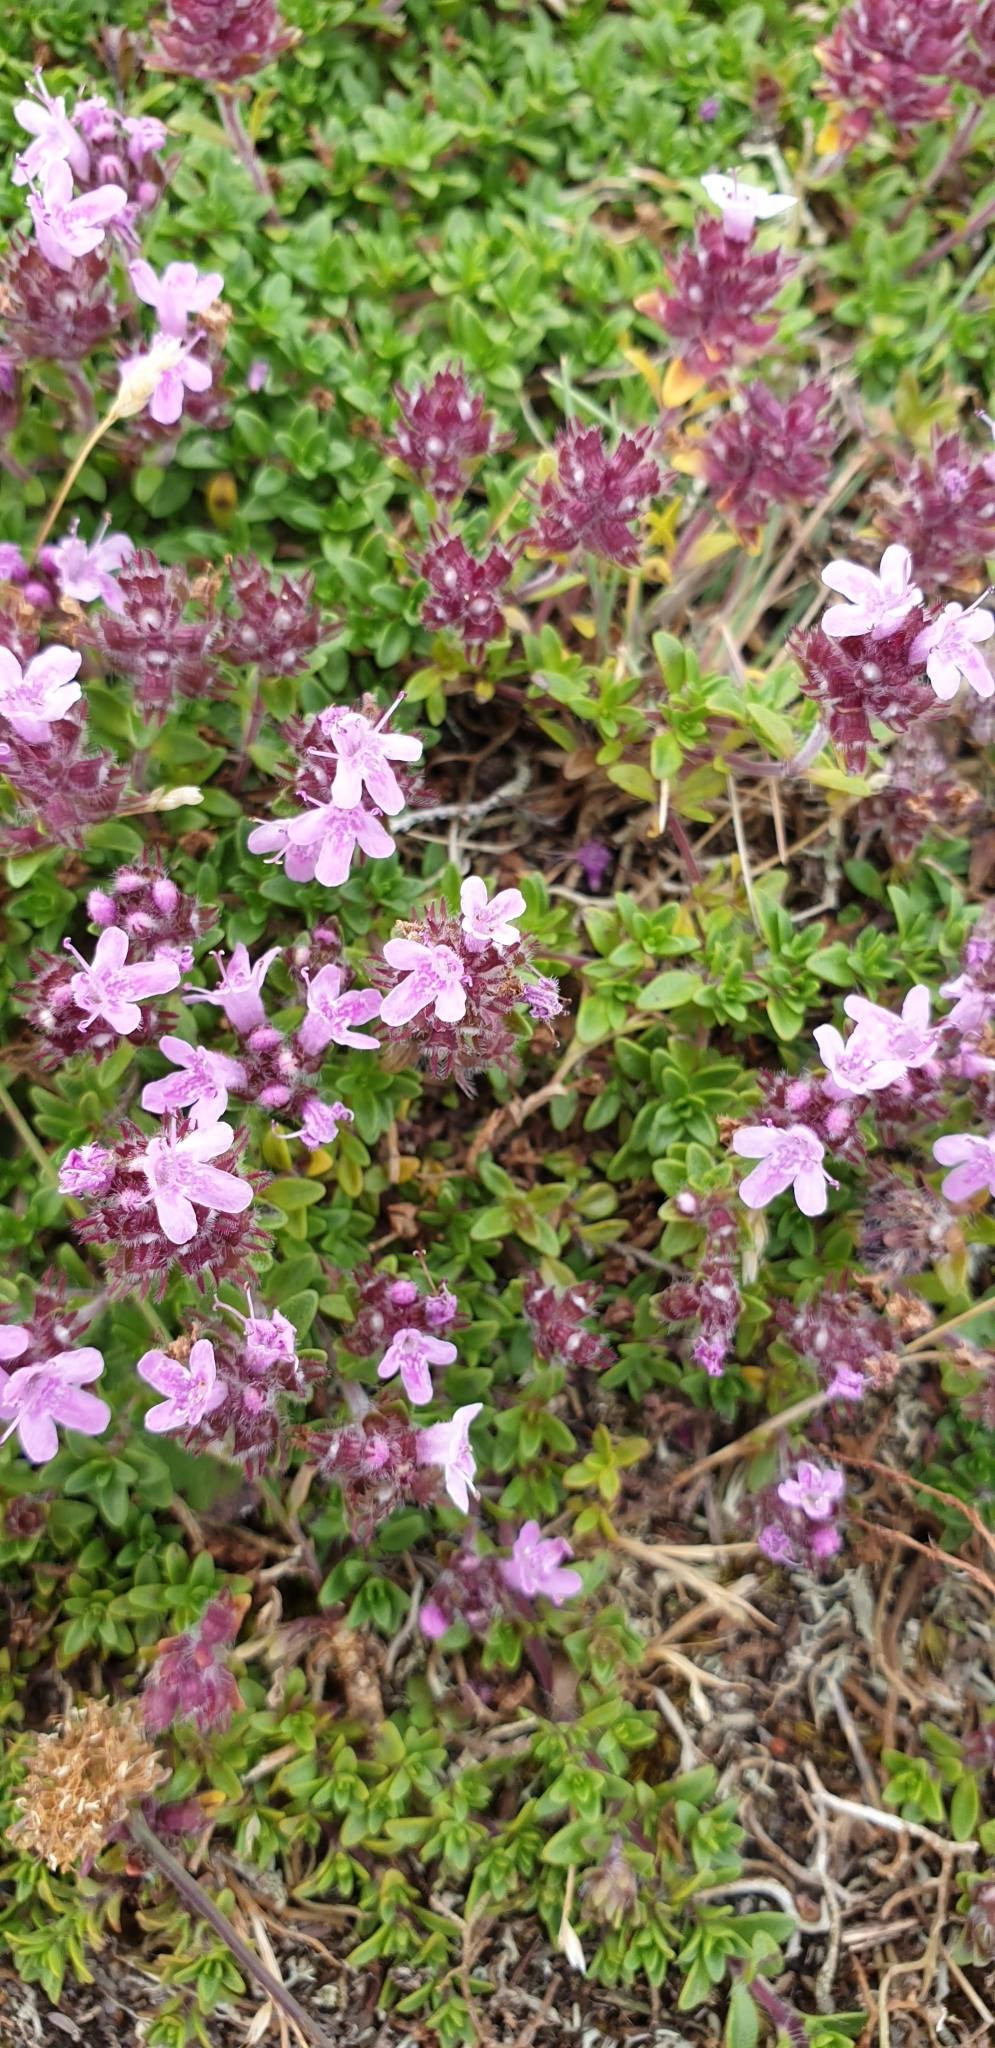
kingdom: Plantae
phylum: Tracheophyta
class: Magnoliopsida
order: Lamiales
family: Lamiaceae
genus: Thymus
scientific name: Thymus serpyllum
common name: Breckland thyme
